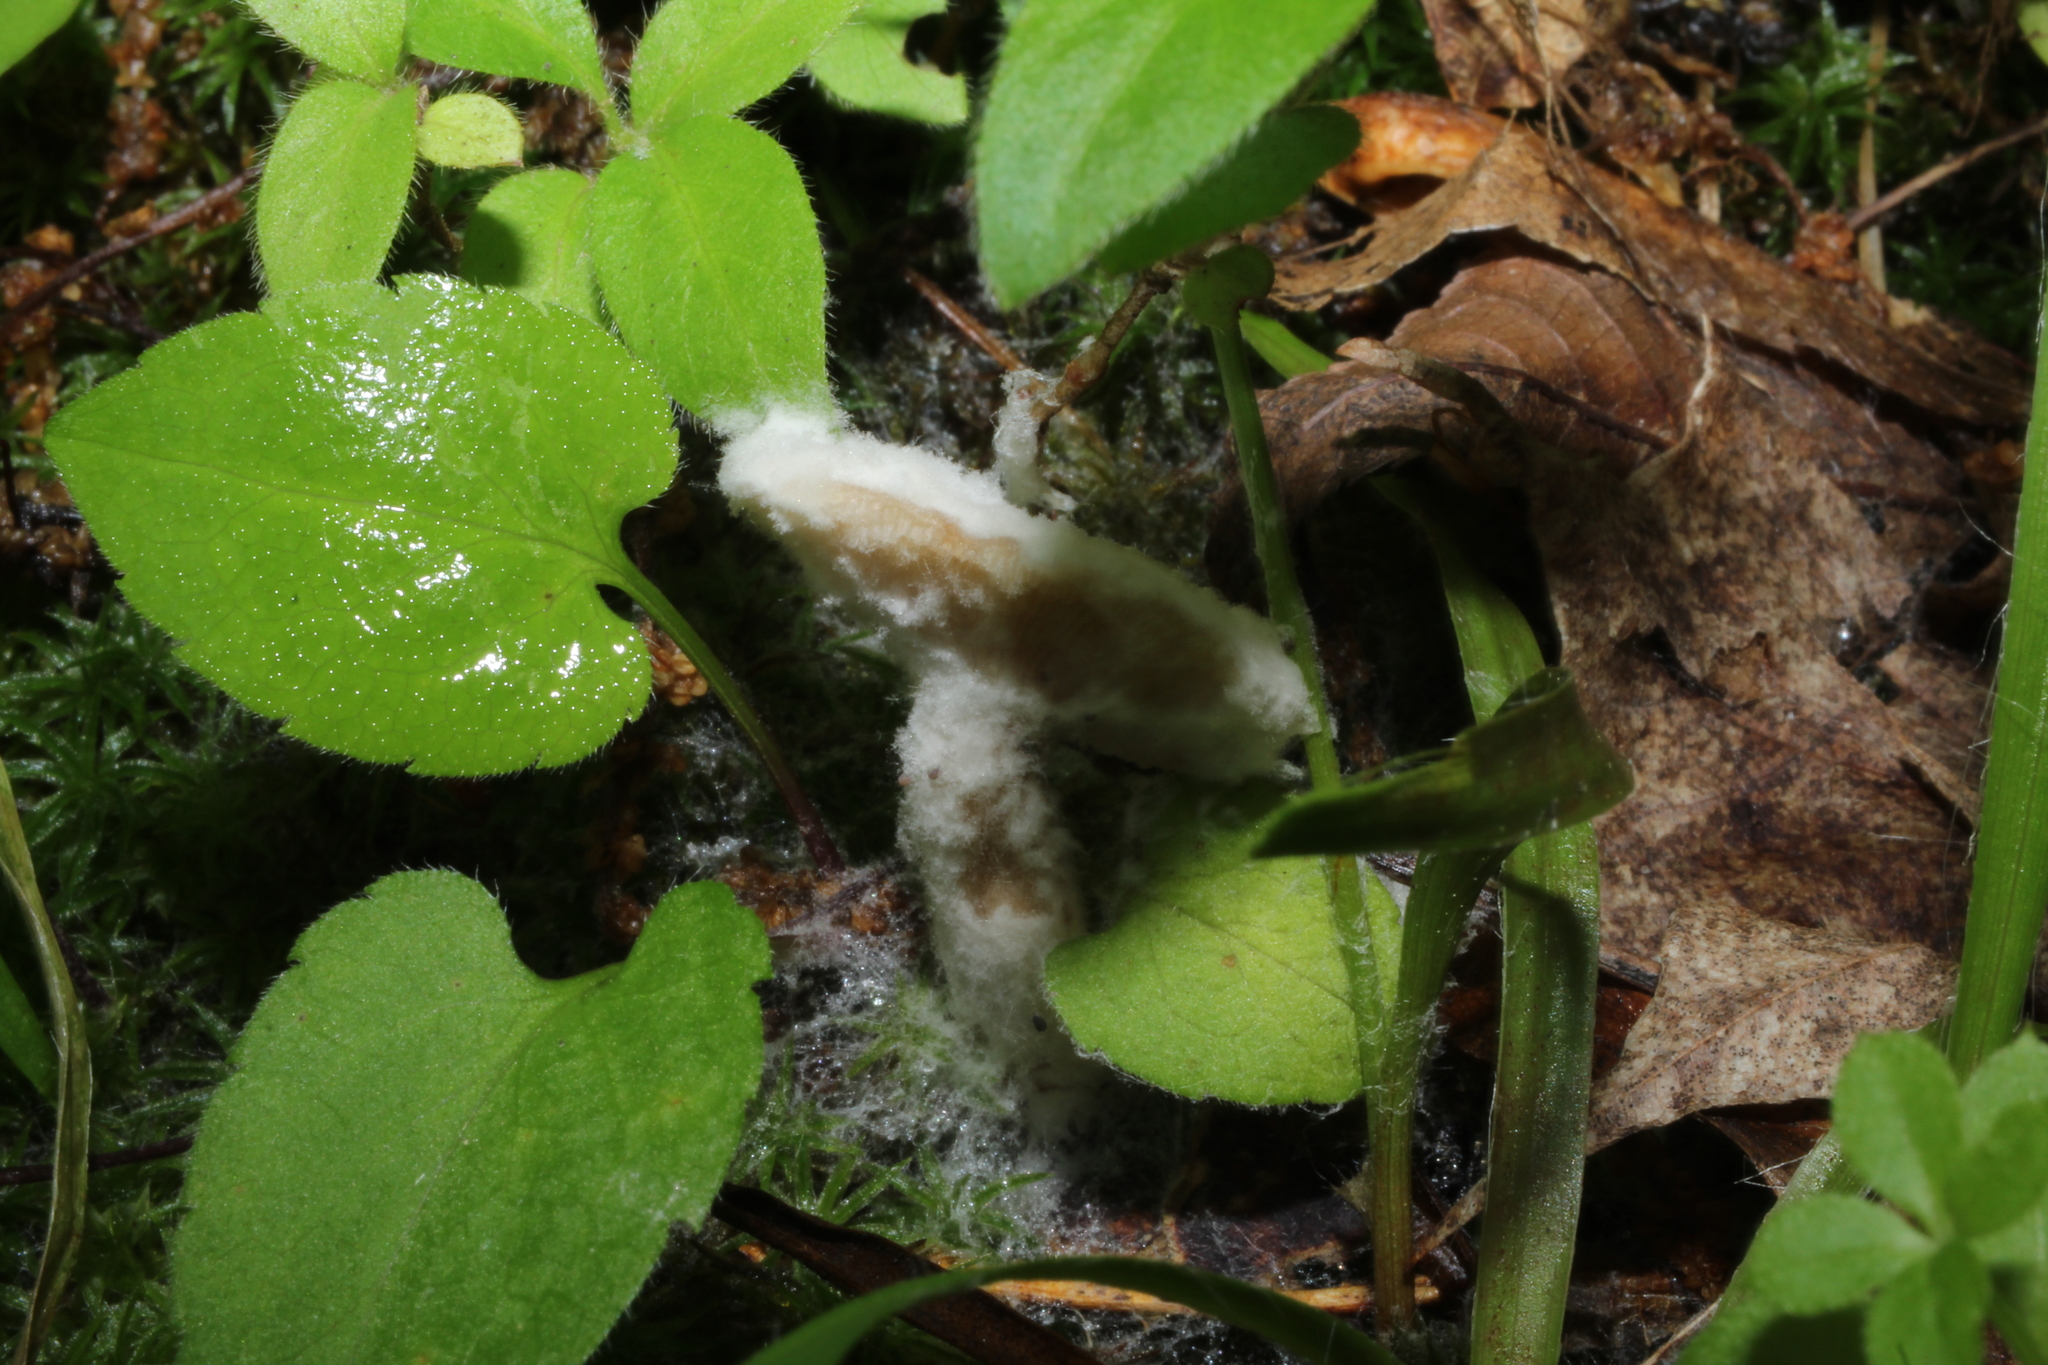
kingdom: Fungi
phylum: Mucoromycota
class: Mucoromycetes
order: Mucorales
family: Rhizopodaceae
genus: Syzygites
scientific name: Syzygites megalocarpus
